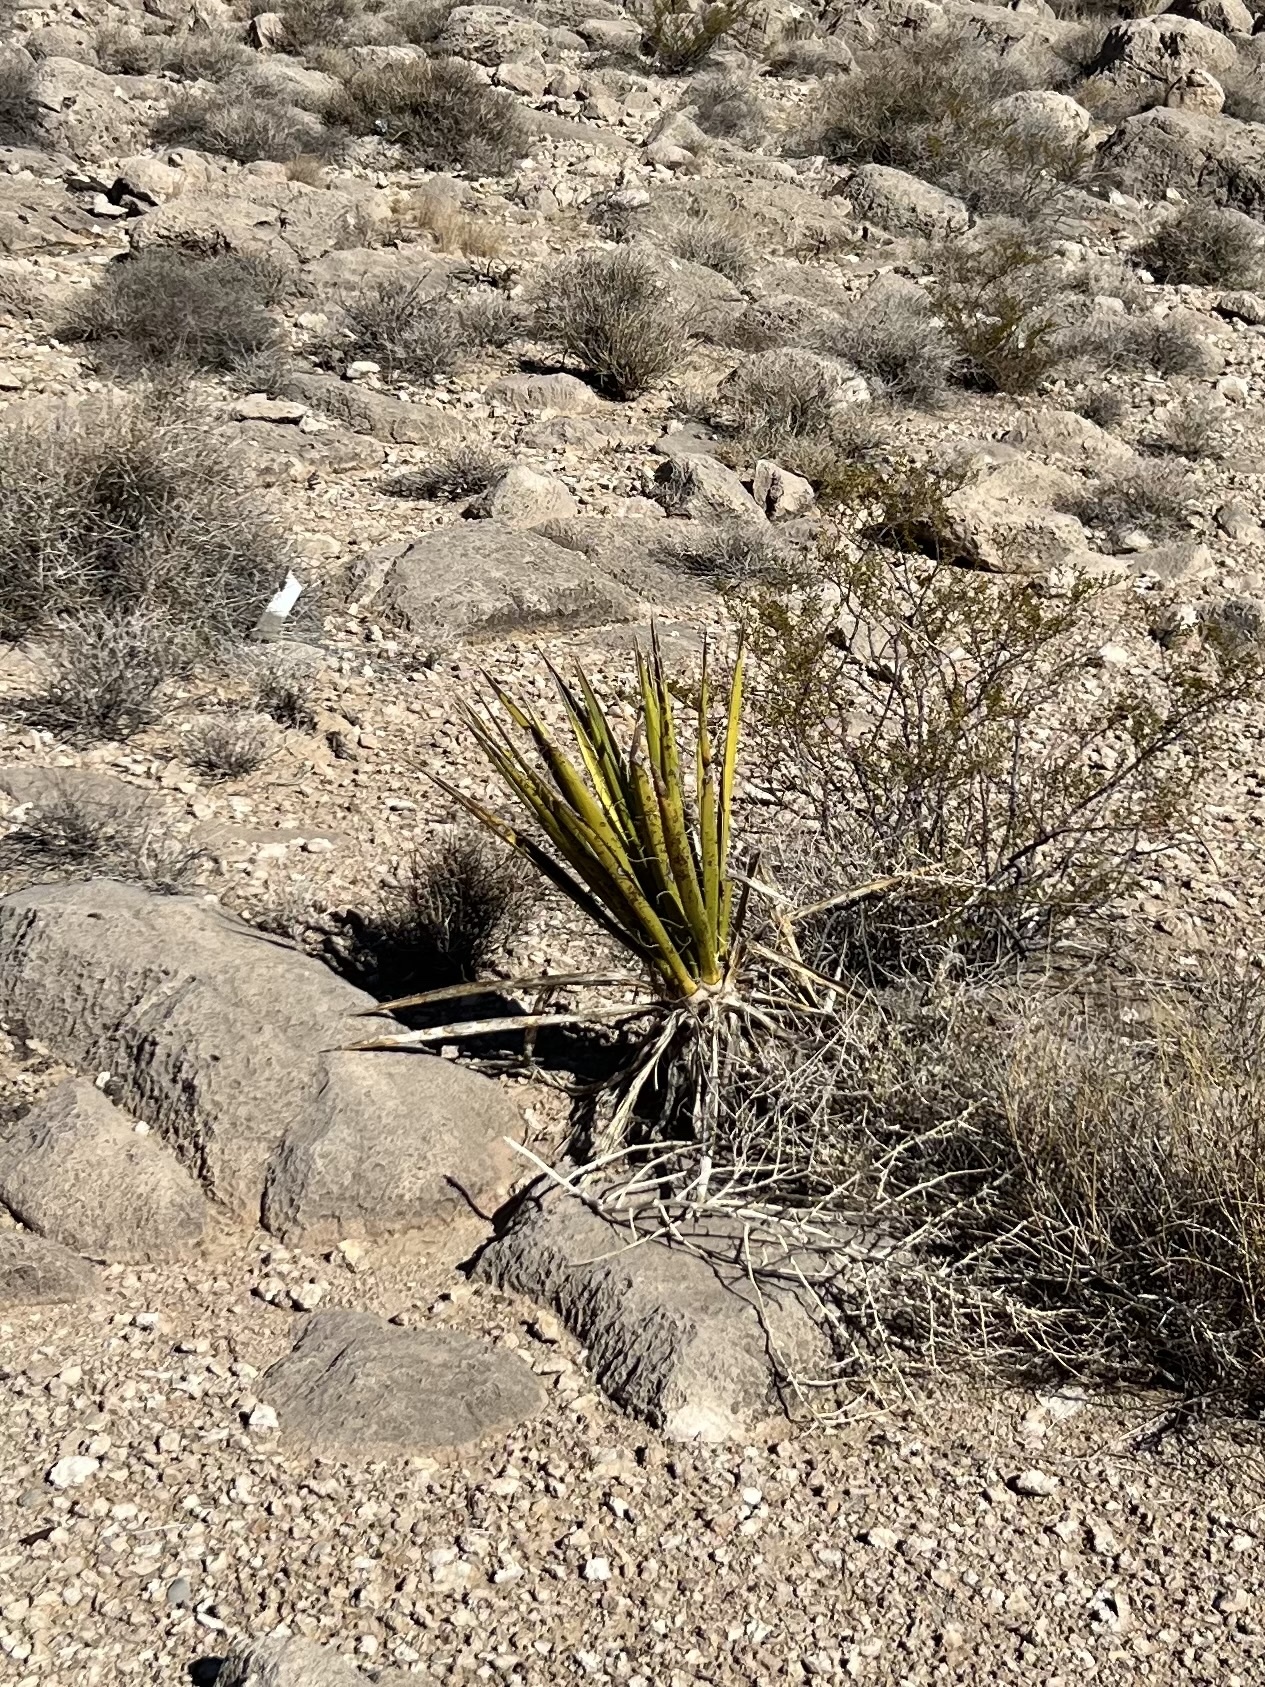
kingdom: Plantae
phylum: Tracheophyta
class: Liliopsida
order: Asparagales
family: Asparagaceae
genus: Yucca
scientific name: Yucca schidigera
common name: Mojave yucca
